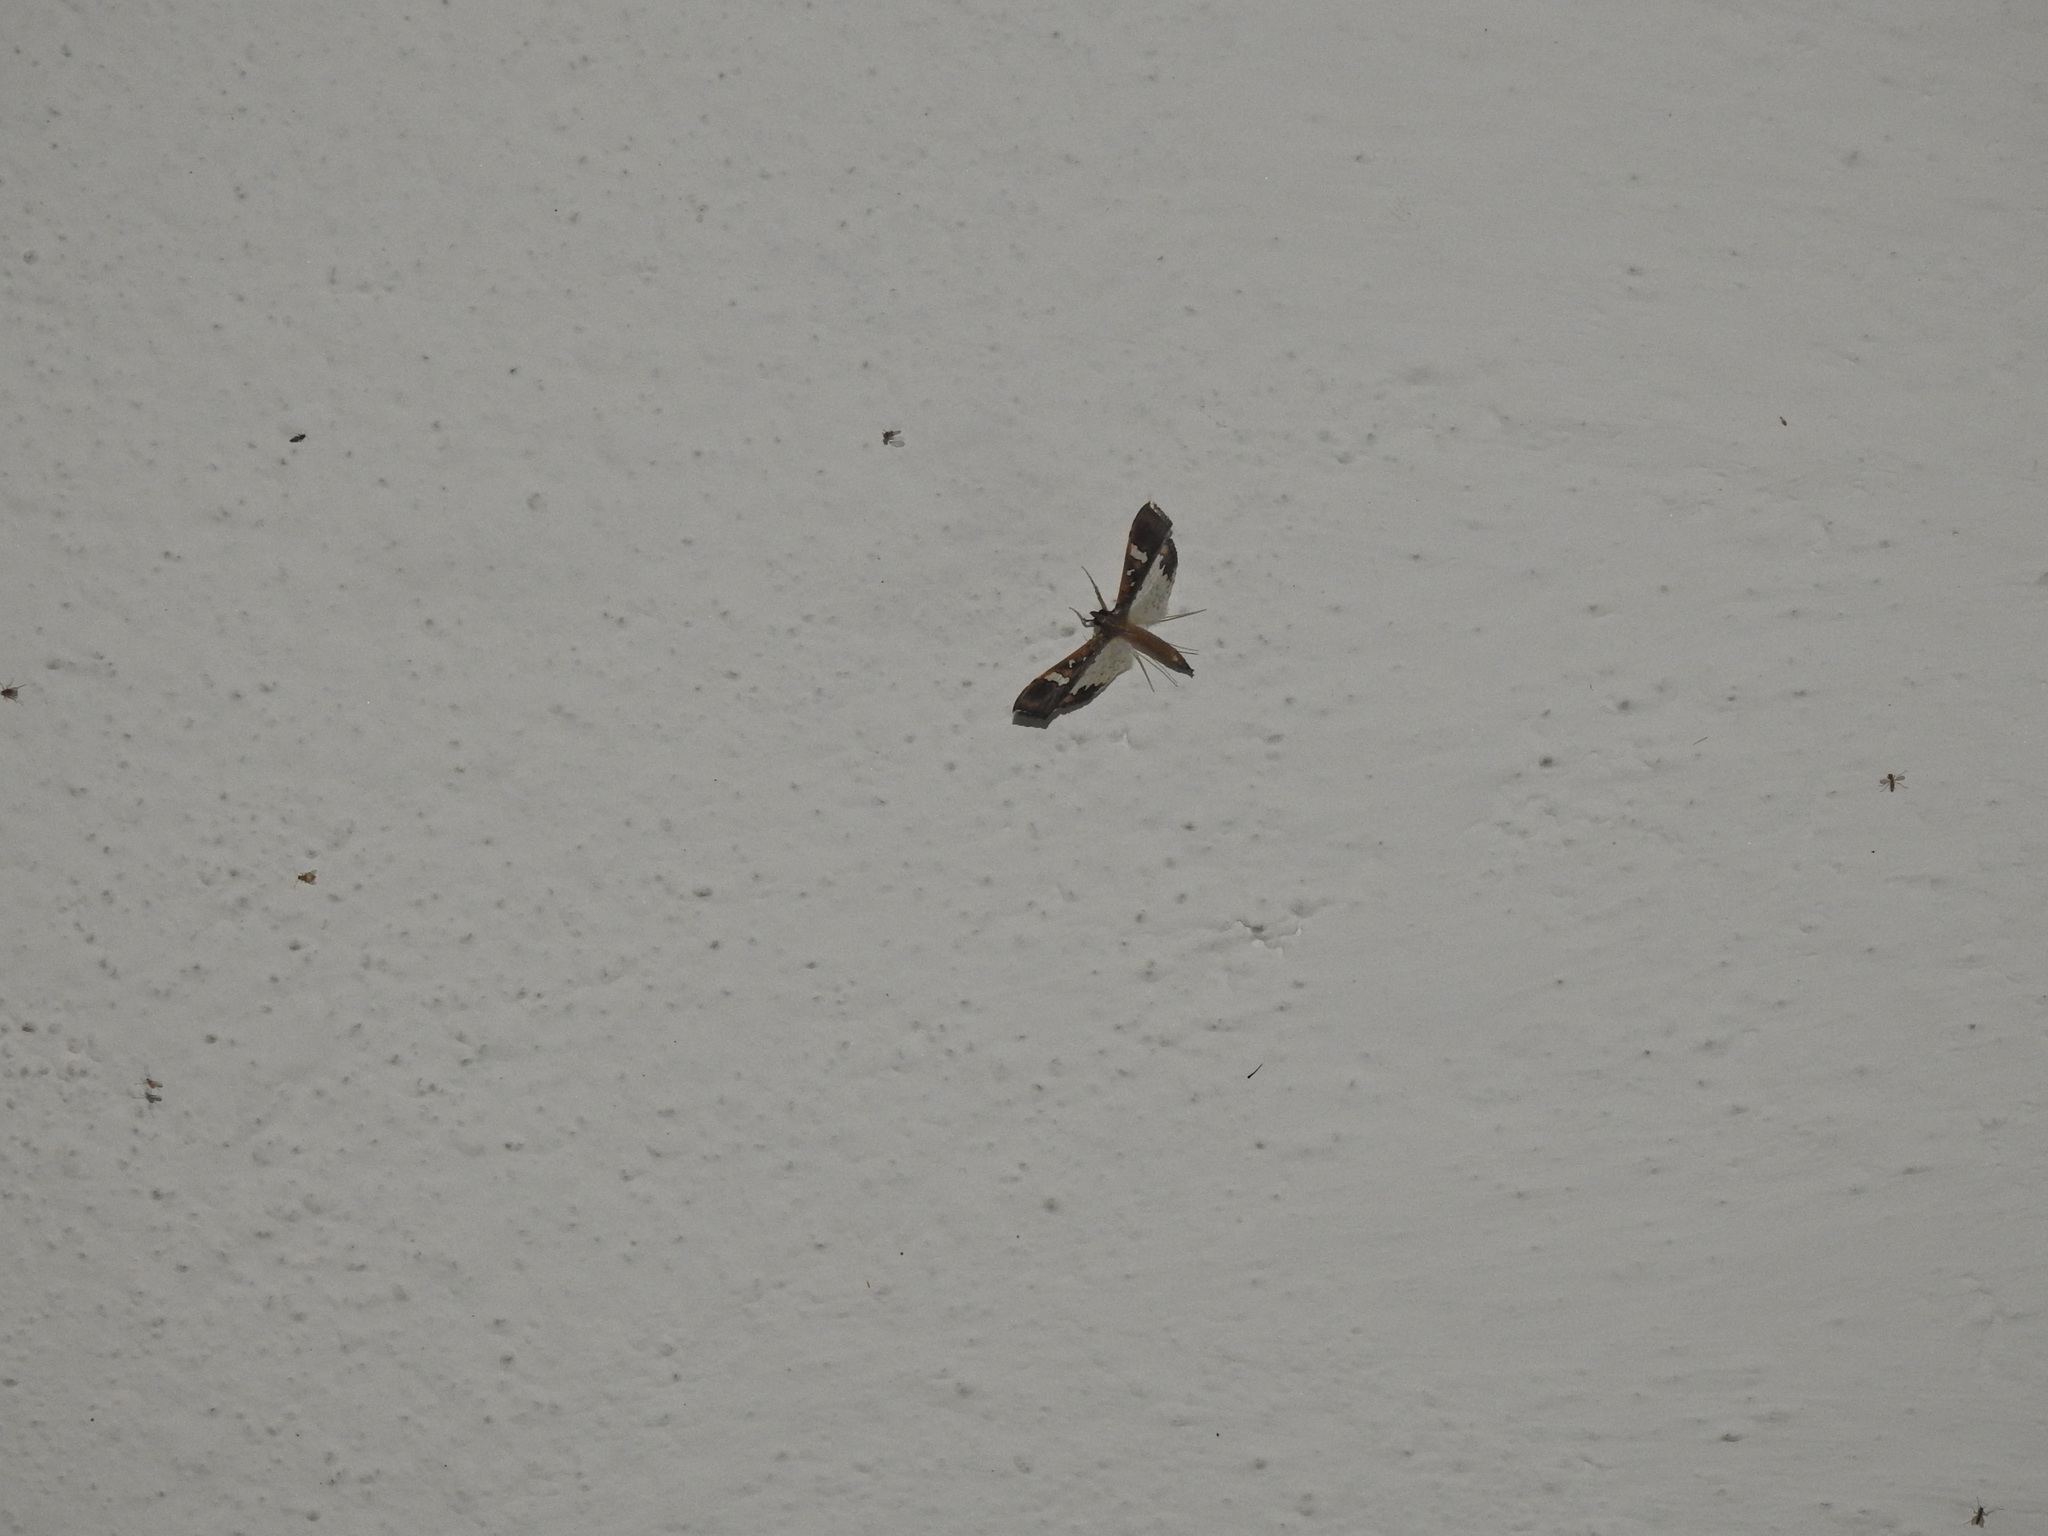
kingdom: Animalia
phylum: Arthropoda
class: Insecta
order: Lepidoptera
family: Crambidae
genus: Maruca
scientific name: Maruca vitrata
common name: Maruca pod borer
